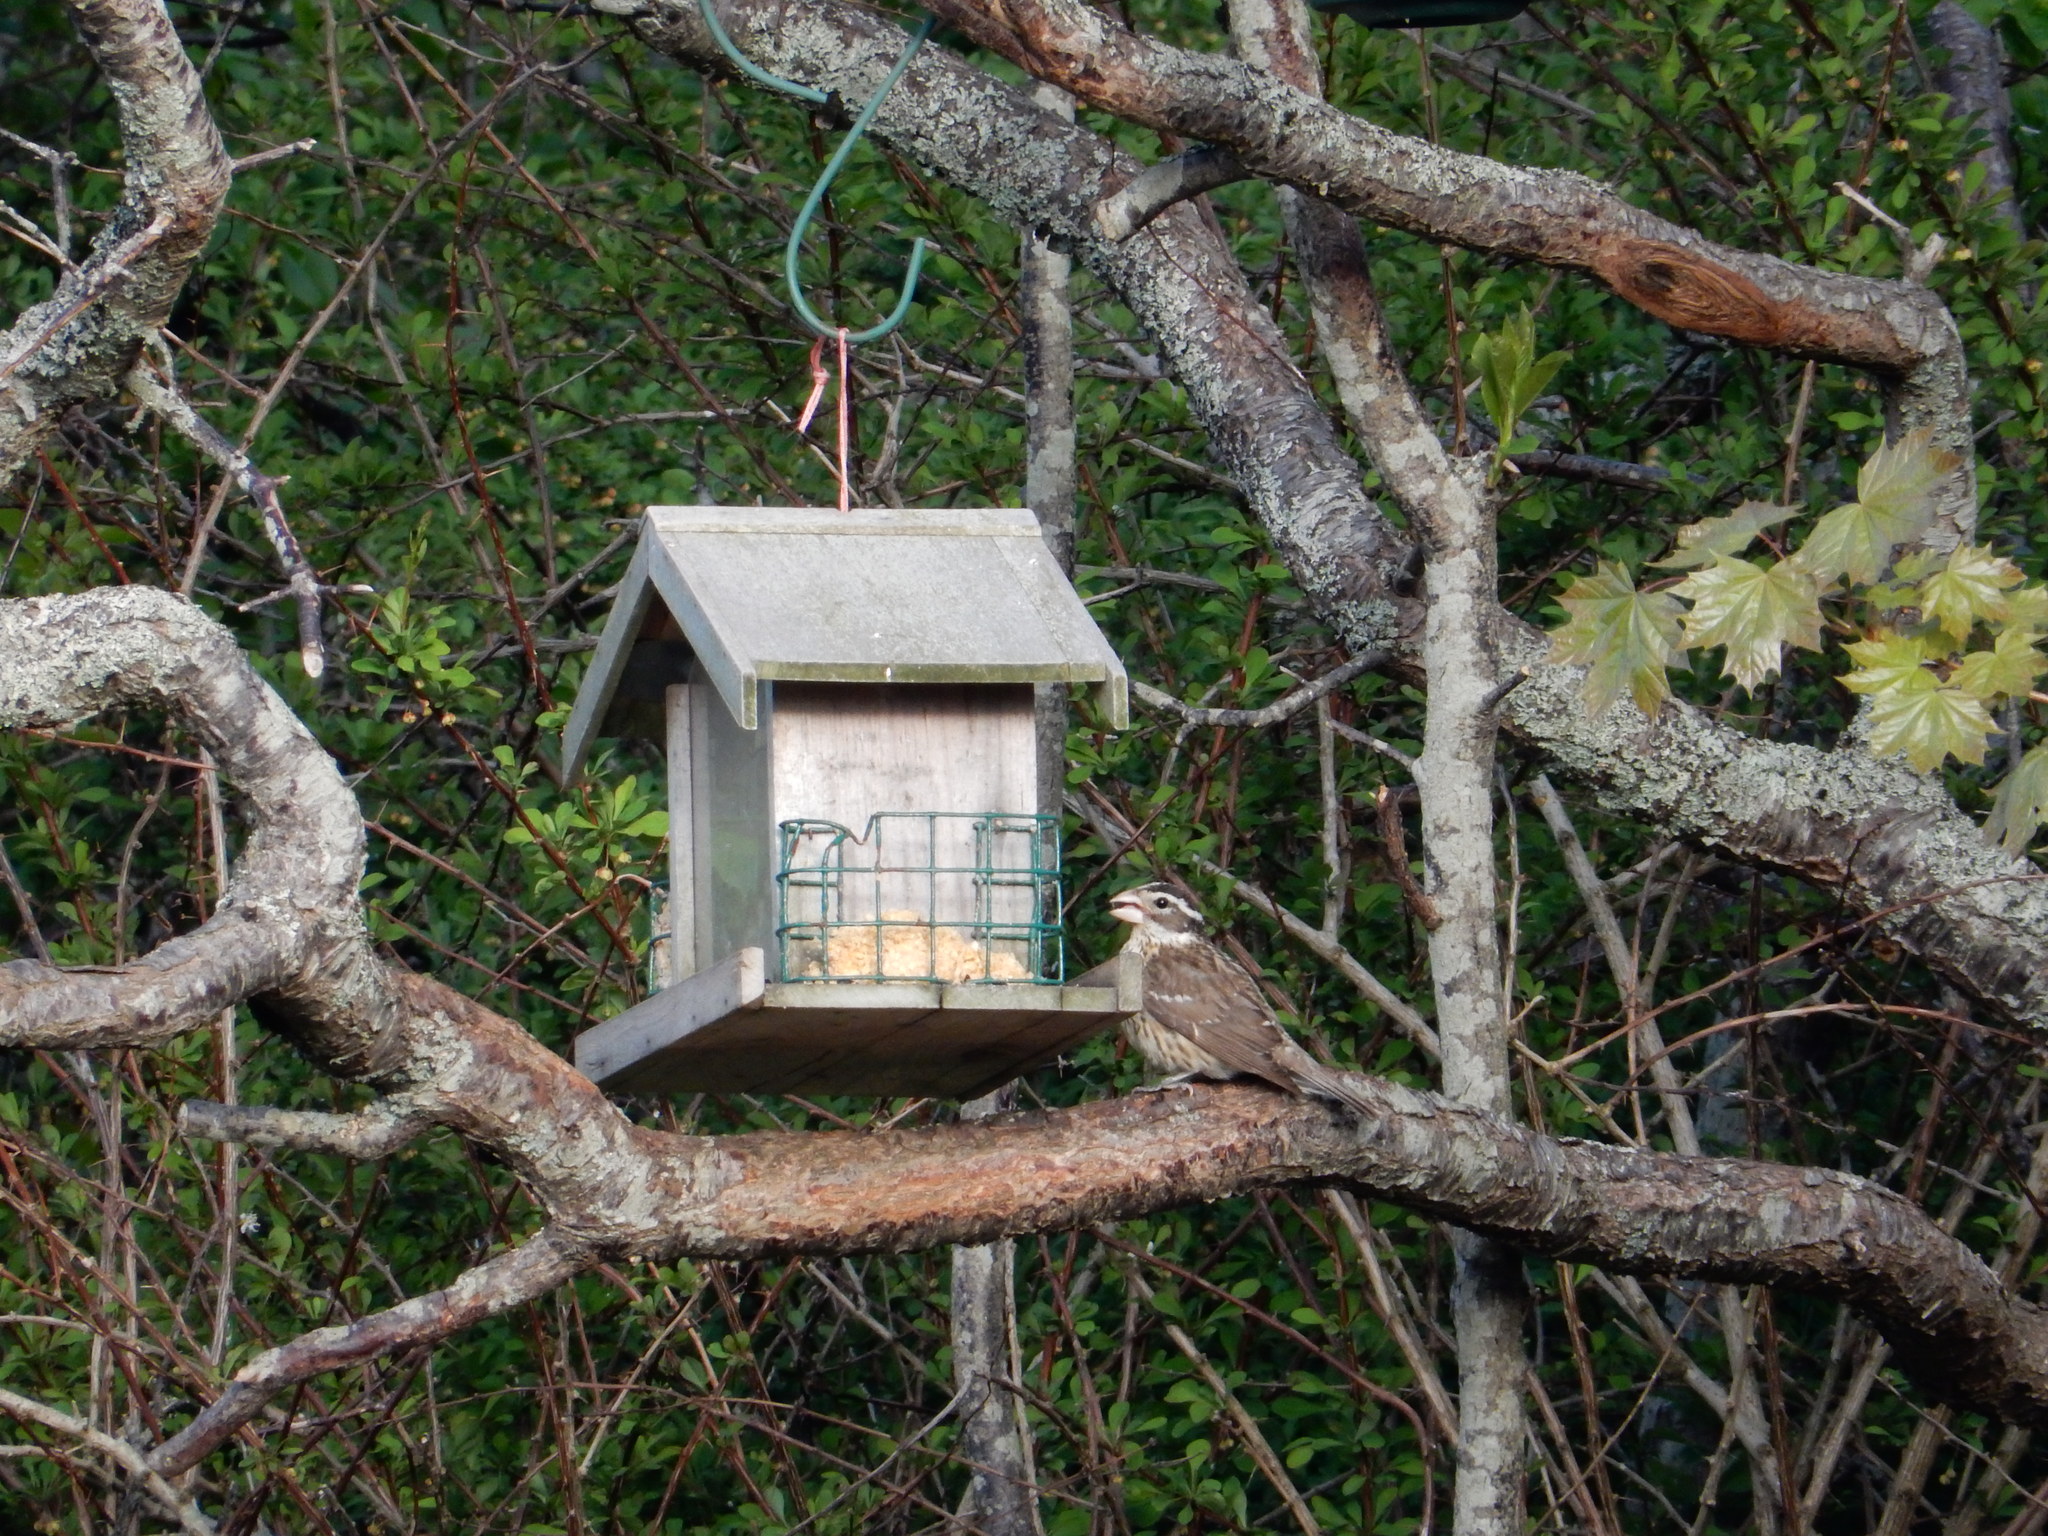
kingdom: Animalia
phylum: Chordata
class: Aves
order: Passeriformes
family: Cardinalidae
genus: Pheucticus
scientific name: Pheucticus ludovicianus
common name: Rose-breasted grosbeak
